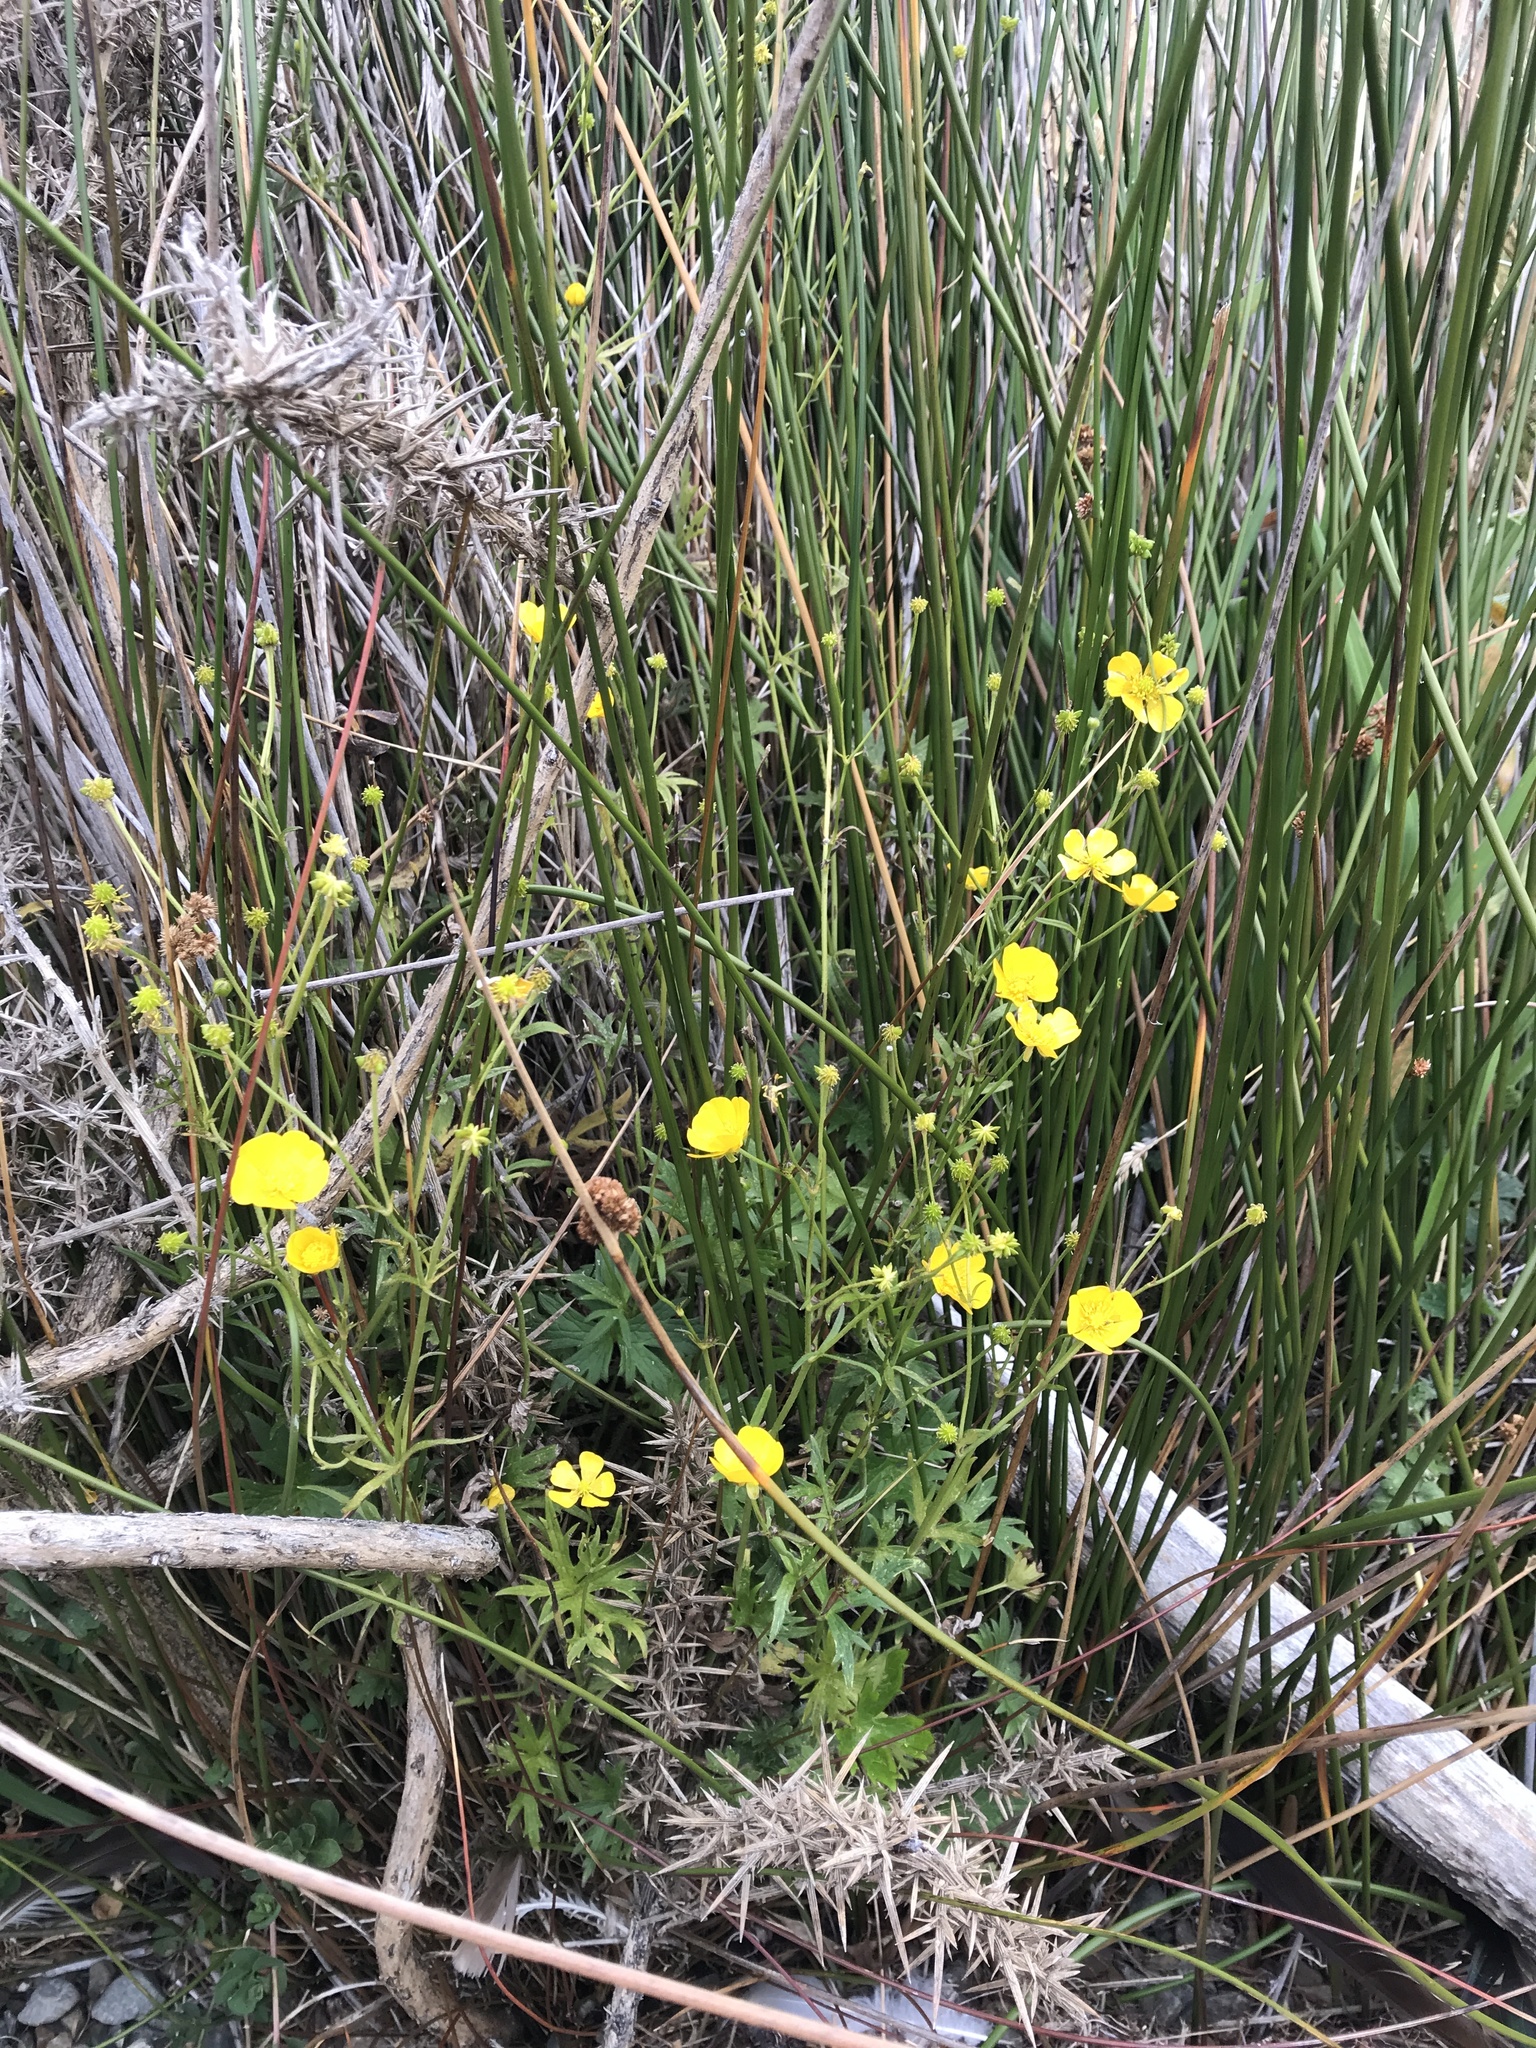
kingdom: Plantae
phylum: Tracheophyta
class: Magnoliopsida
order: Ranunculales
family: Ranunculaceae
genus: Ranunculus
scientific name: Ranunculus acris
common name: Meadow buttercup
